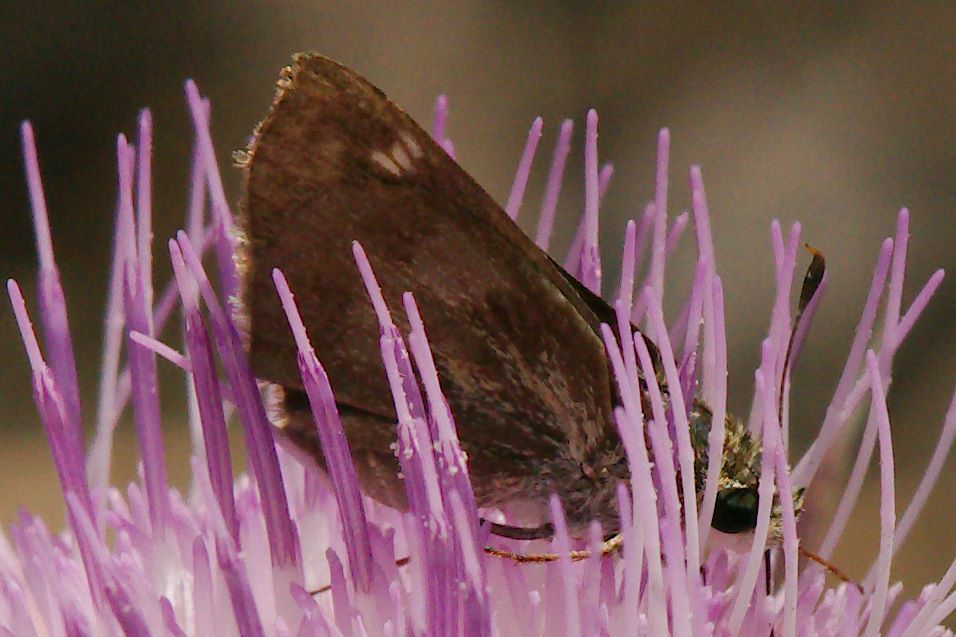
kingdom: Animalia
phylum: Arthropoda
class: Insecta
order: Lepidoptera
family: Hesperiidae
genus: Polites
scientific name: Polites vibex
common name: Whirlabout
